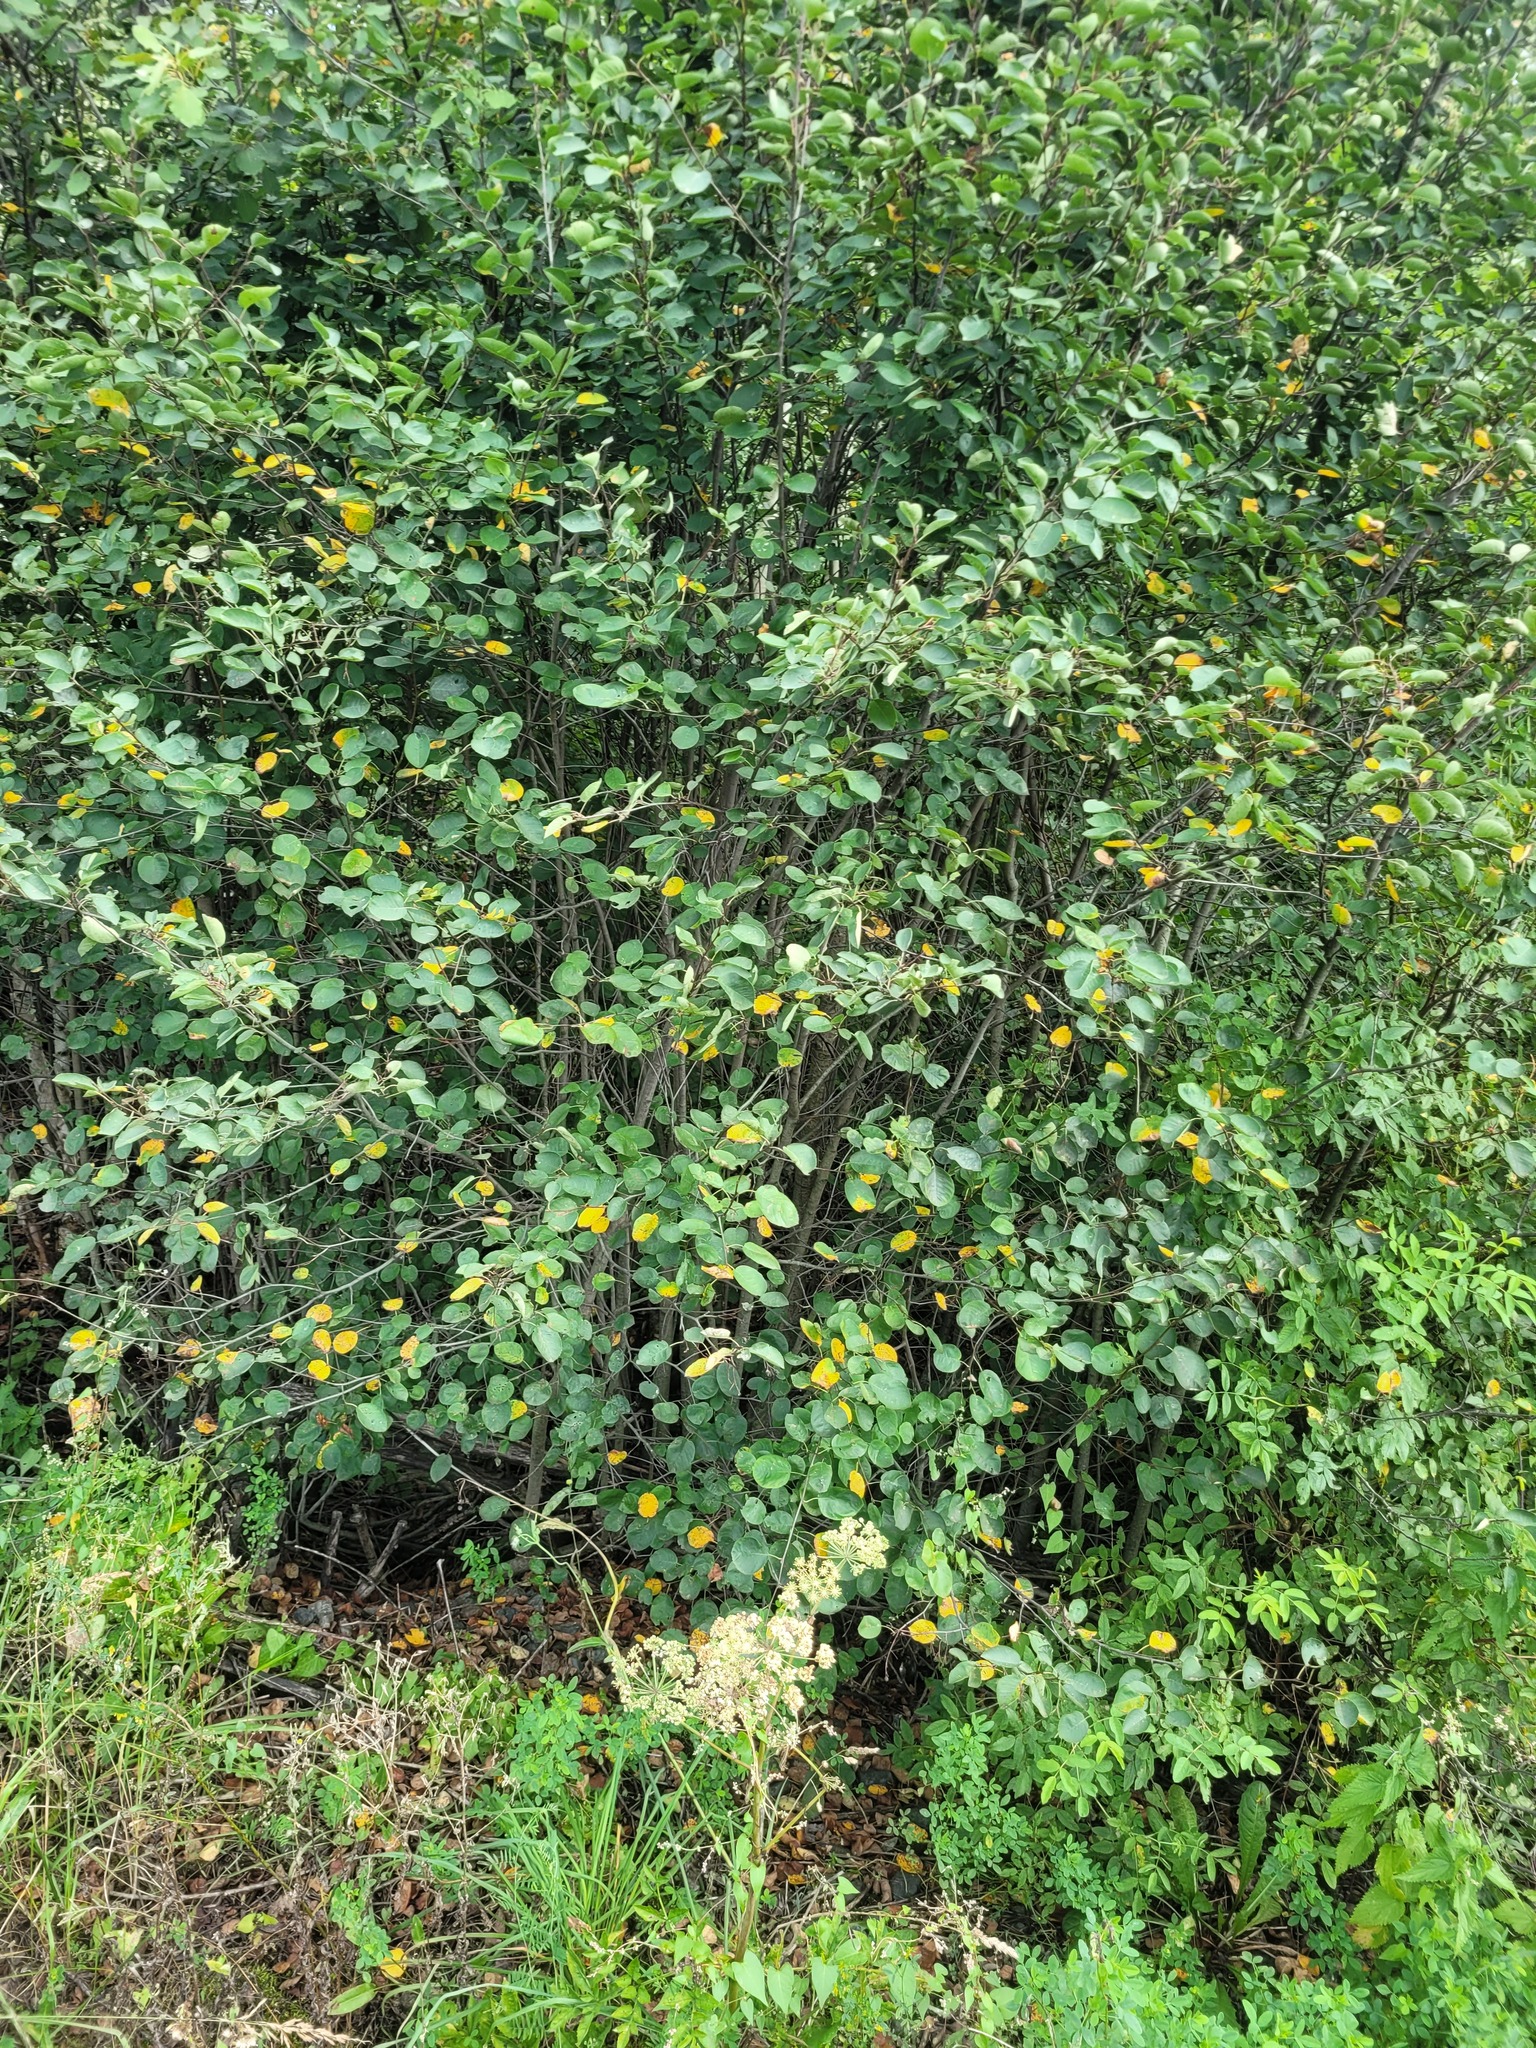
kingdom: Plantae
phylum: Tracheophyta
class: Magnoliopsida
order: Rosales
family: Rosaceae
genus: Amelanchier
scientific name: Amelanchier
